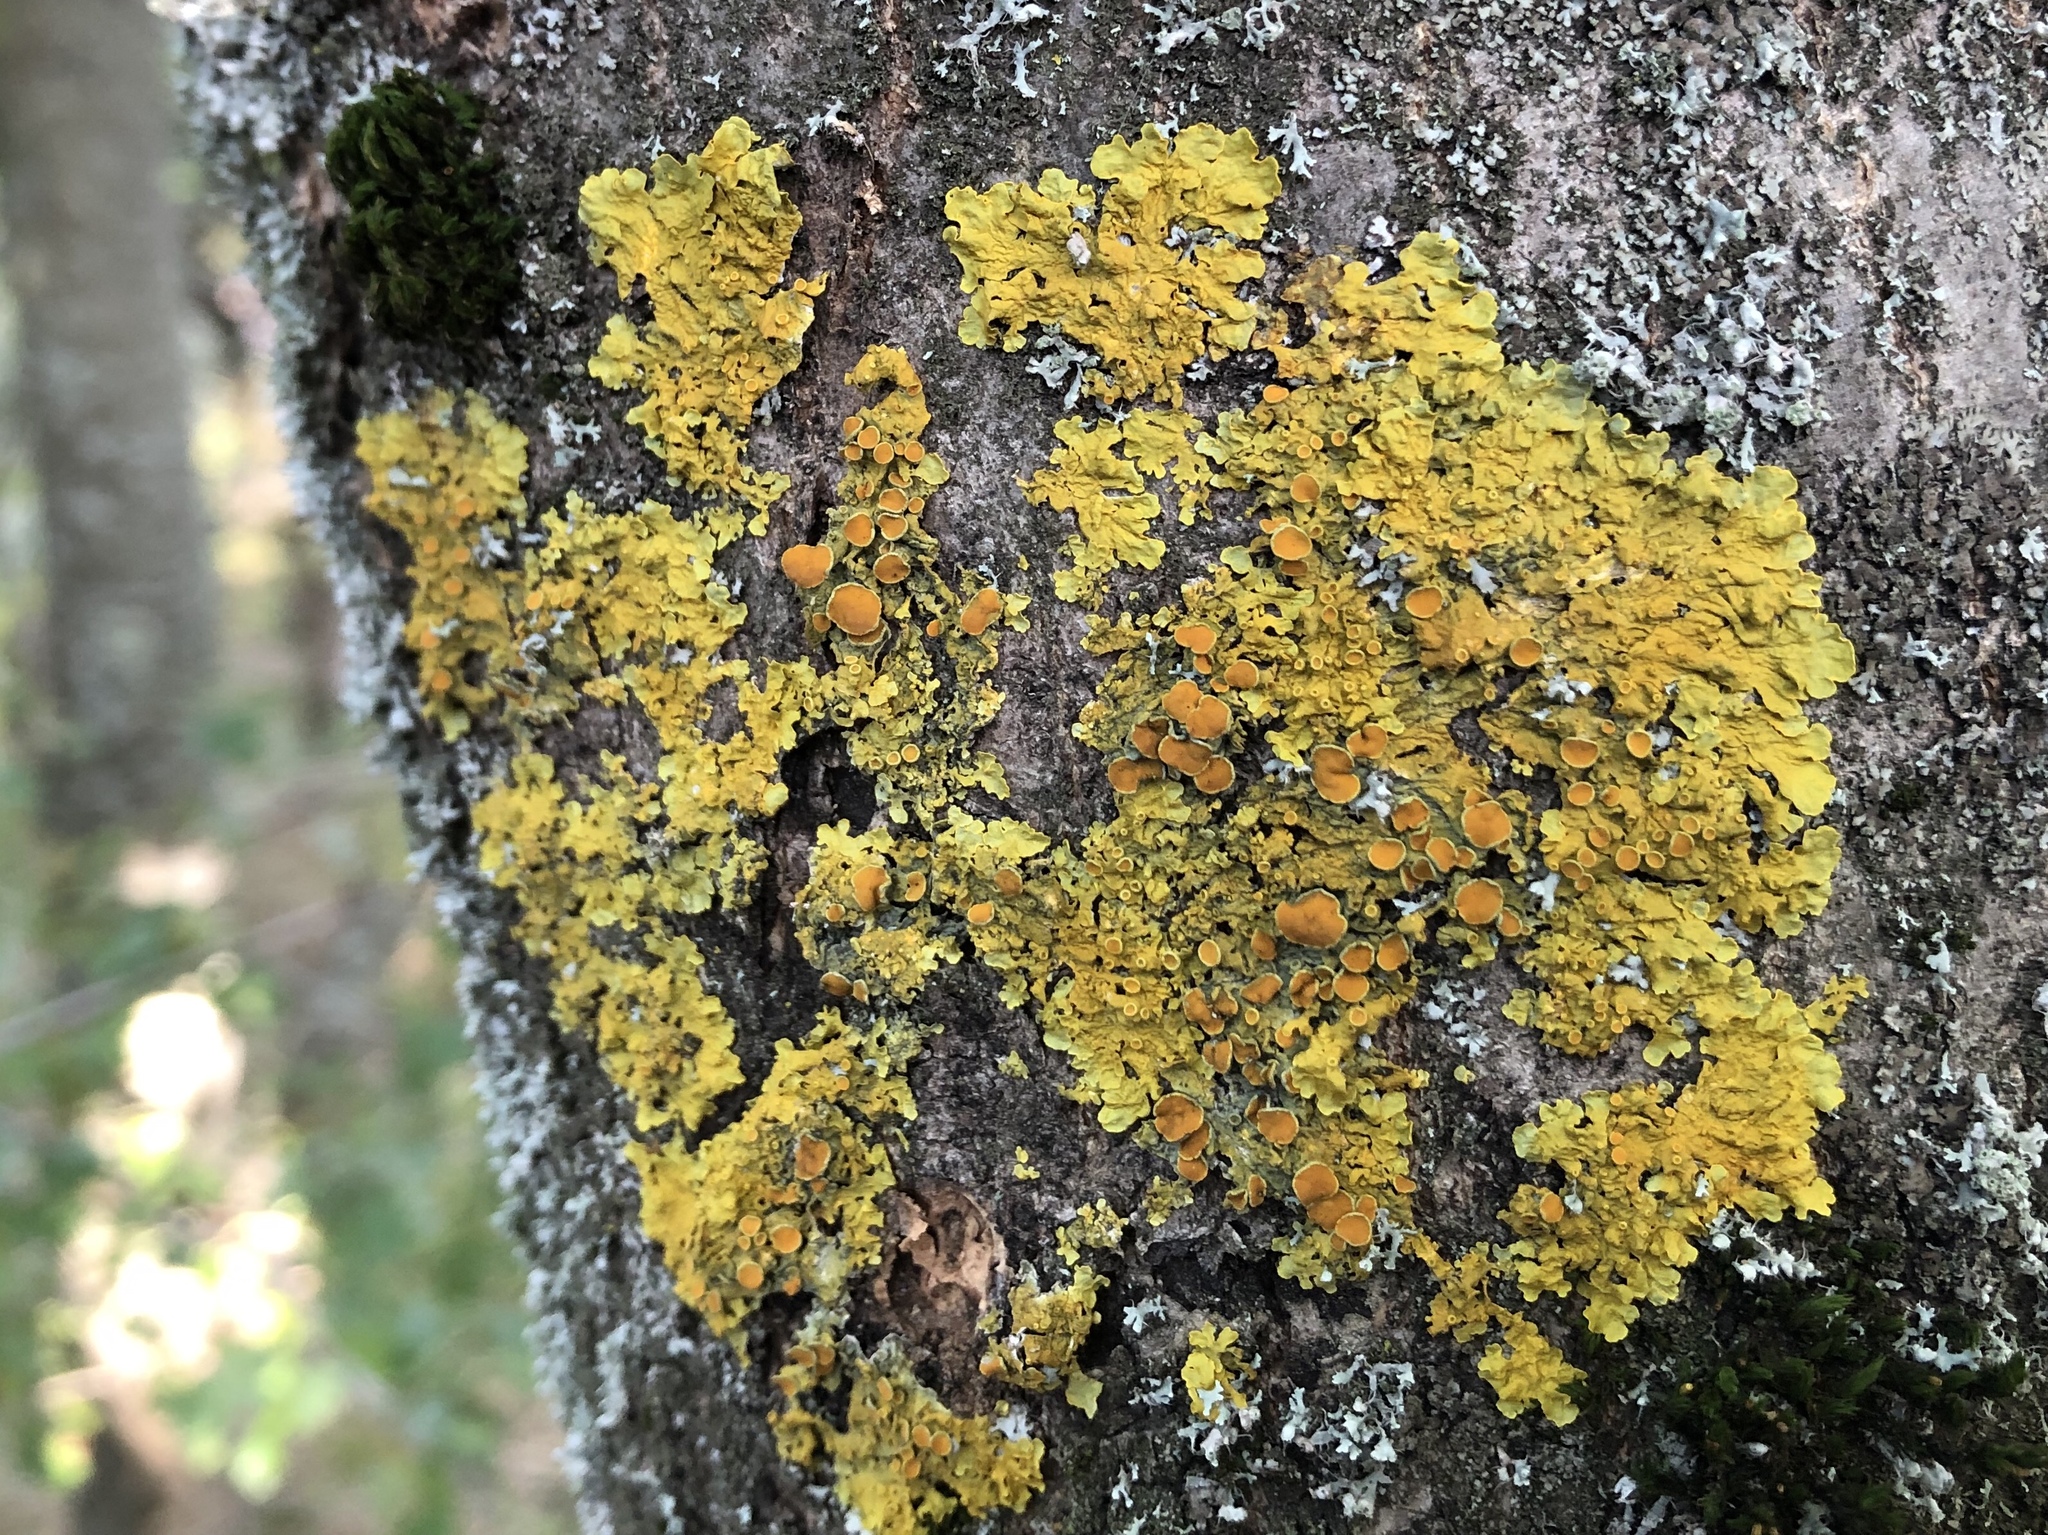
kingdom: Fungi
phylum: Ascomycota
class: Lecanoromycetes
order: Teloschistales
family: Teloschistaceae
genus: Xanthoria
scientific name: Xanthoria parietina
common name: Common orange lichen
